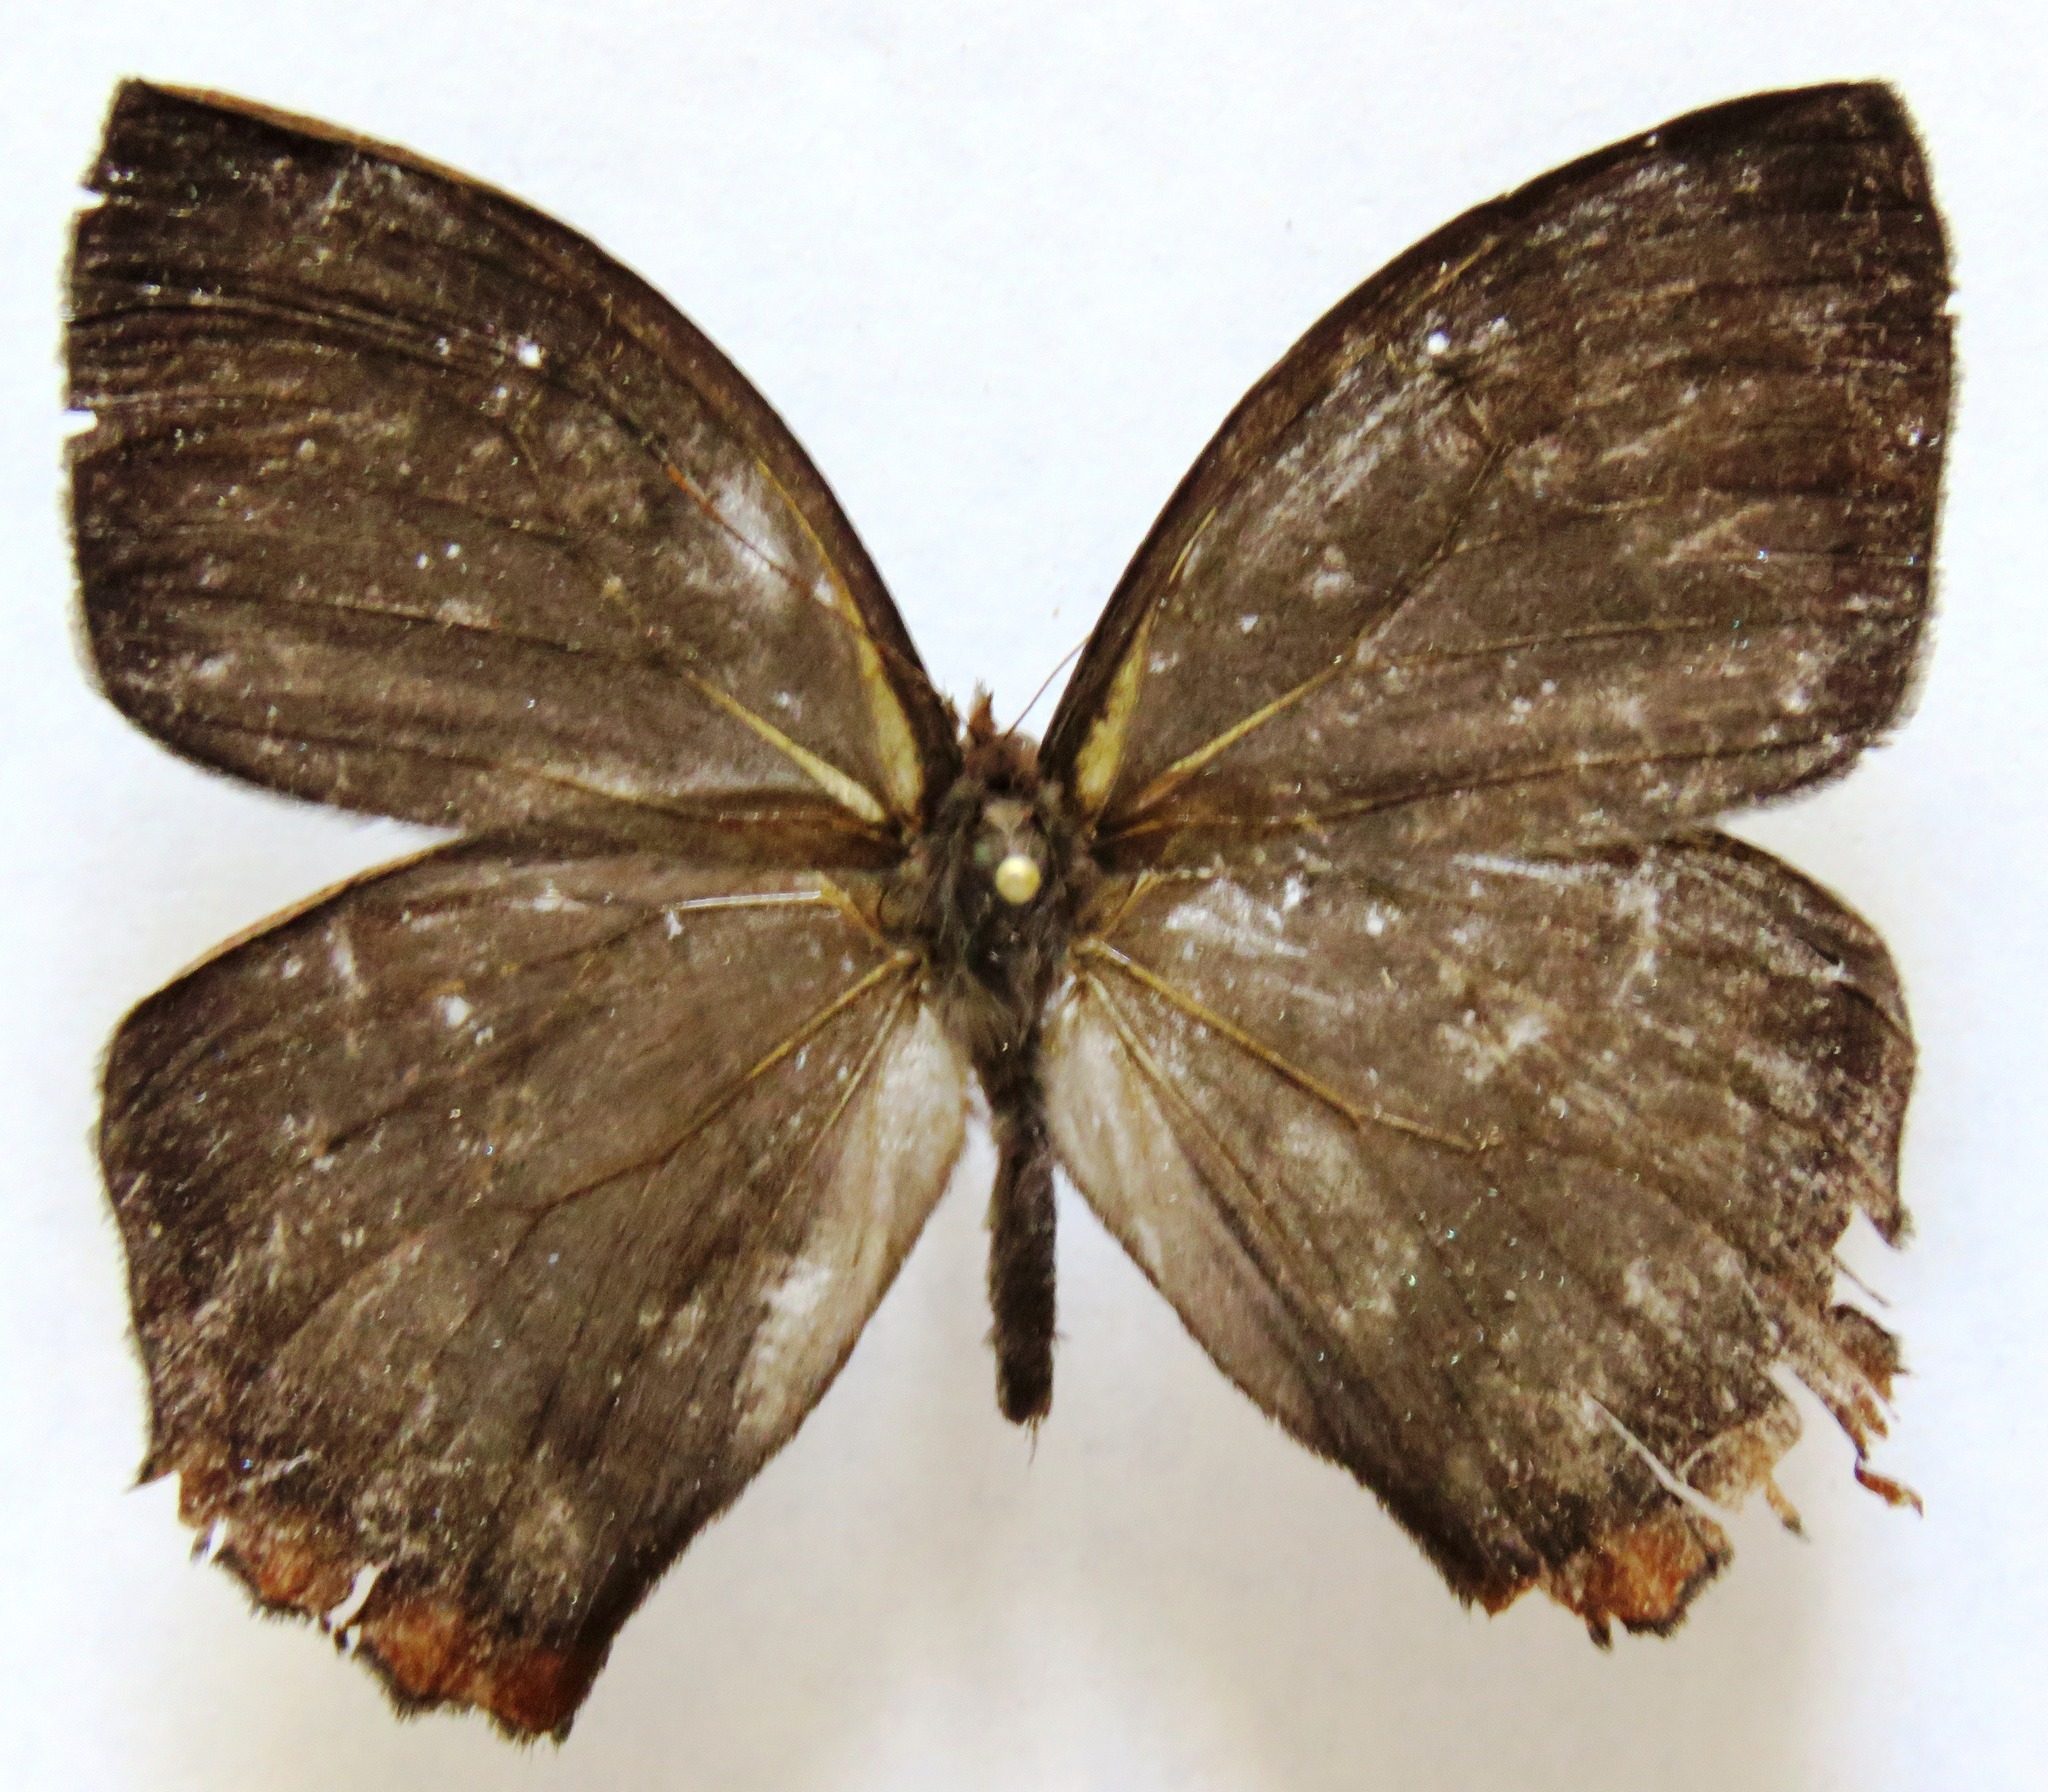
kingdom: Animalia
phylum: Arthropoda
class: Insecta
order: Lepidoptera
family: Nymphalidae
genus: Taygetis
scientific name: Taygetis virgilia
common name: Stub-tailed satyr
